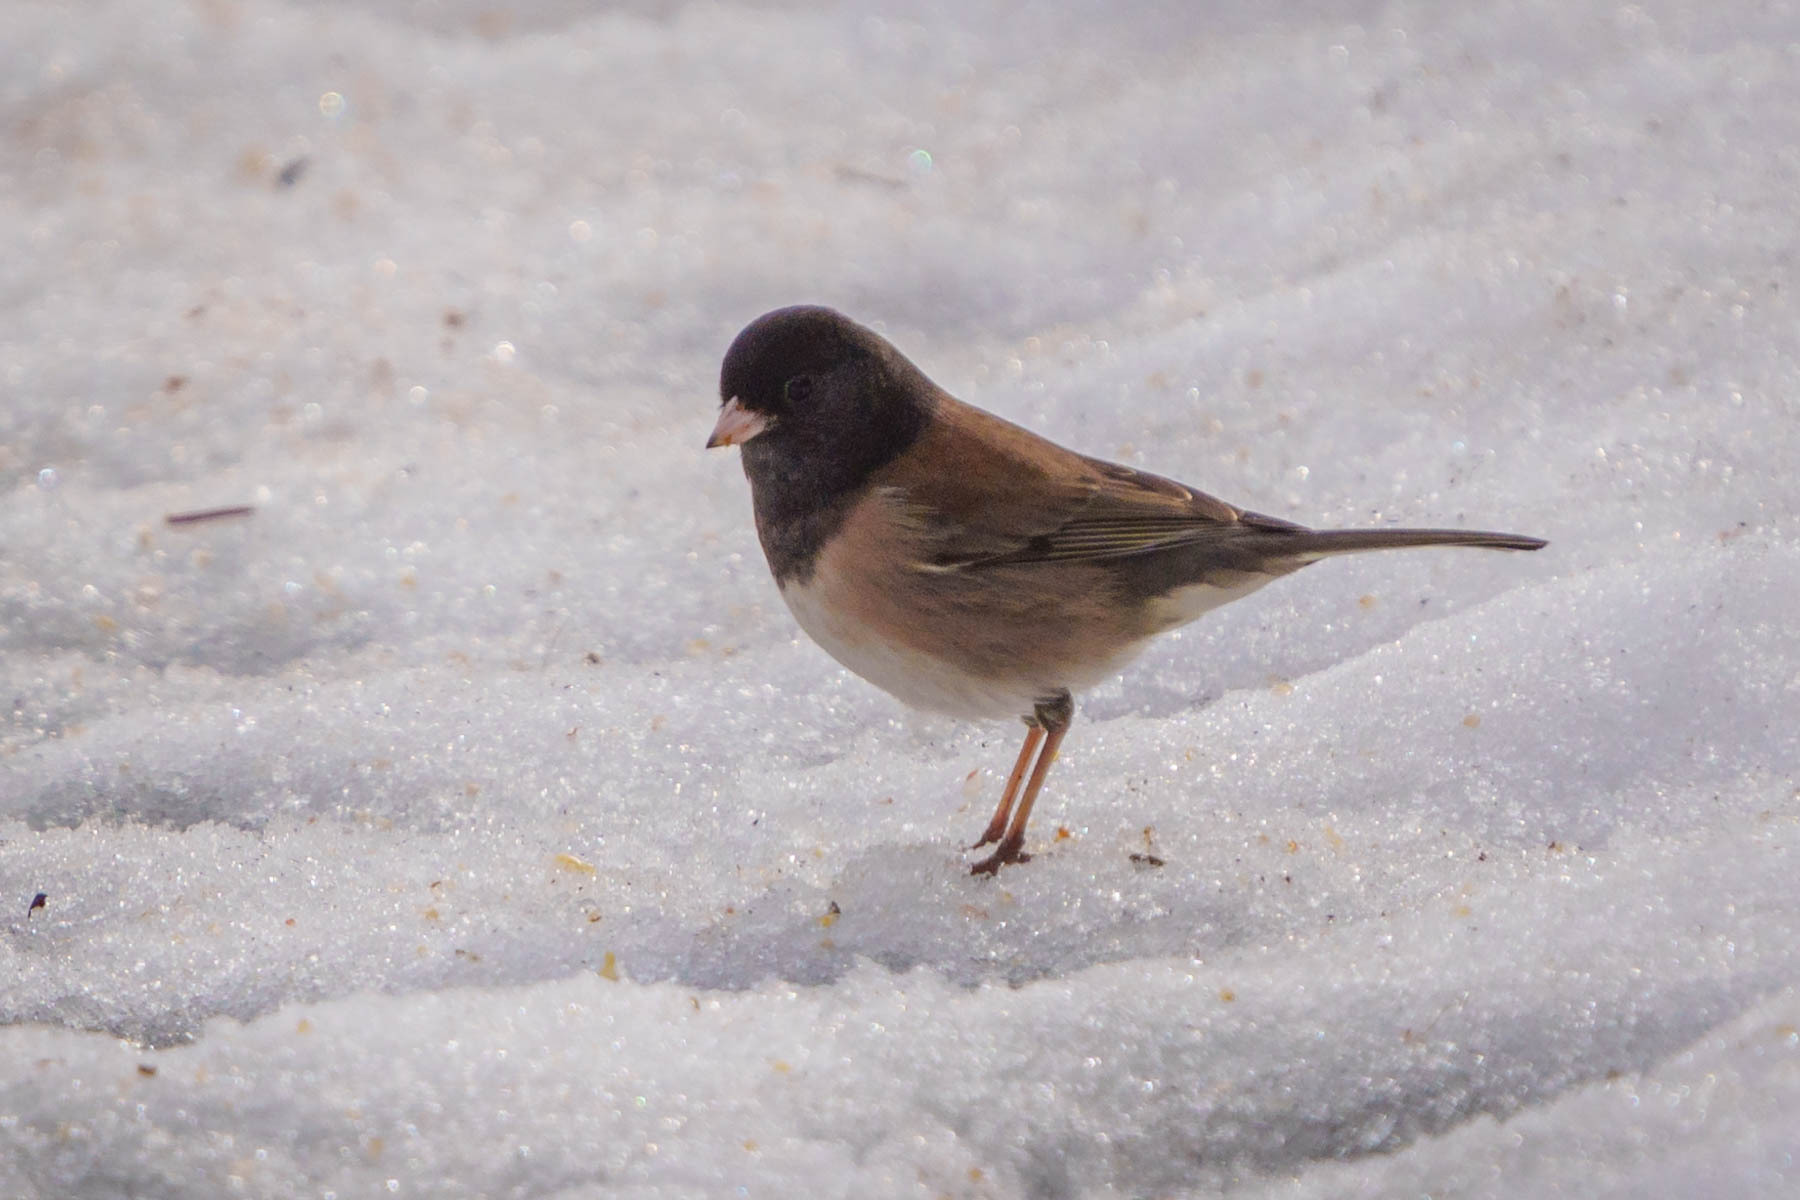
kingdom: Animalia
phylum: Chordata
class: Aves
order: Passeriformes
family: Passerellidae
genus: Junco
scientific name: Junco hyemalis
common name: Dark-eyed junco
